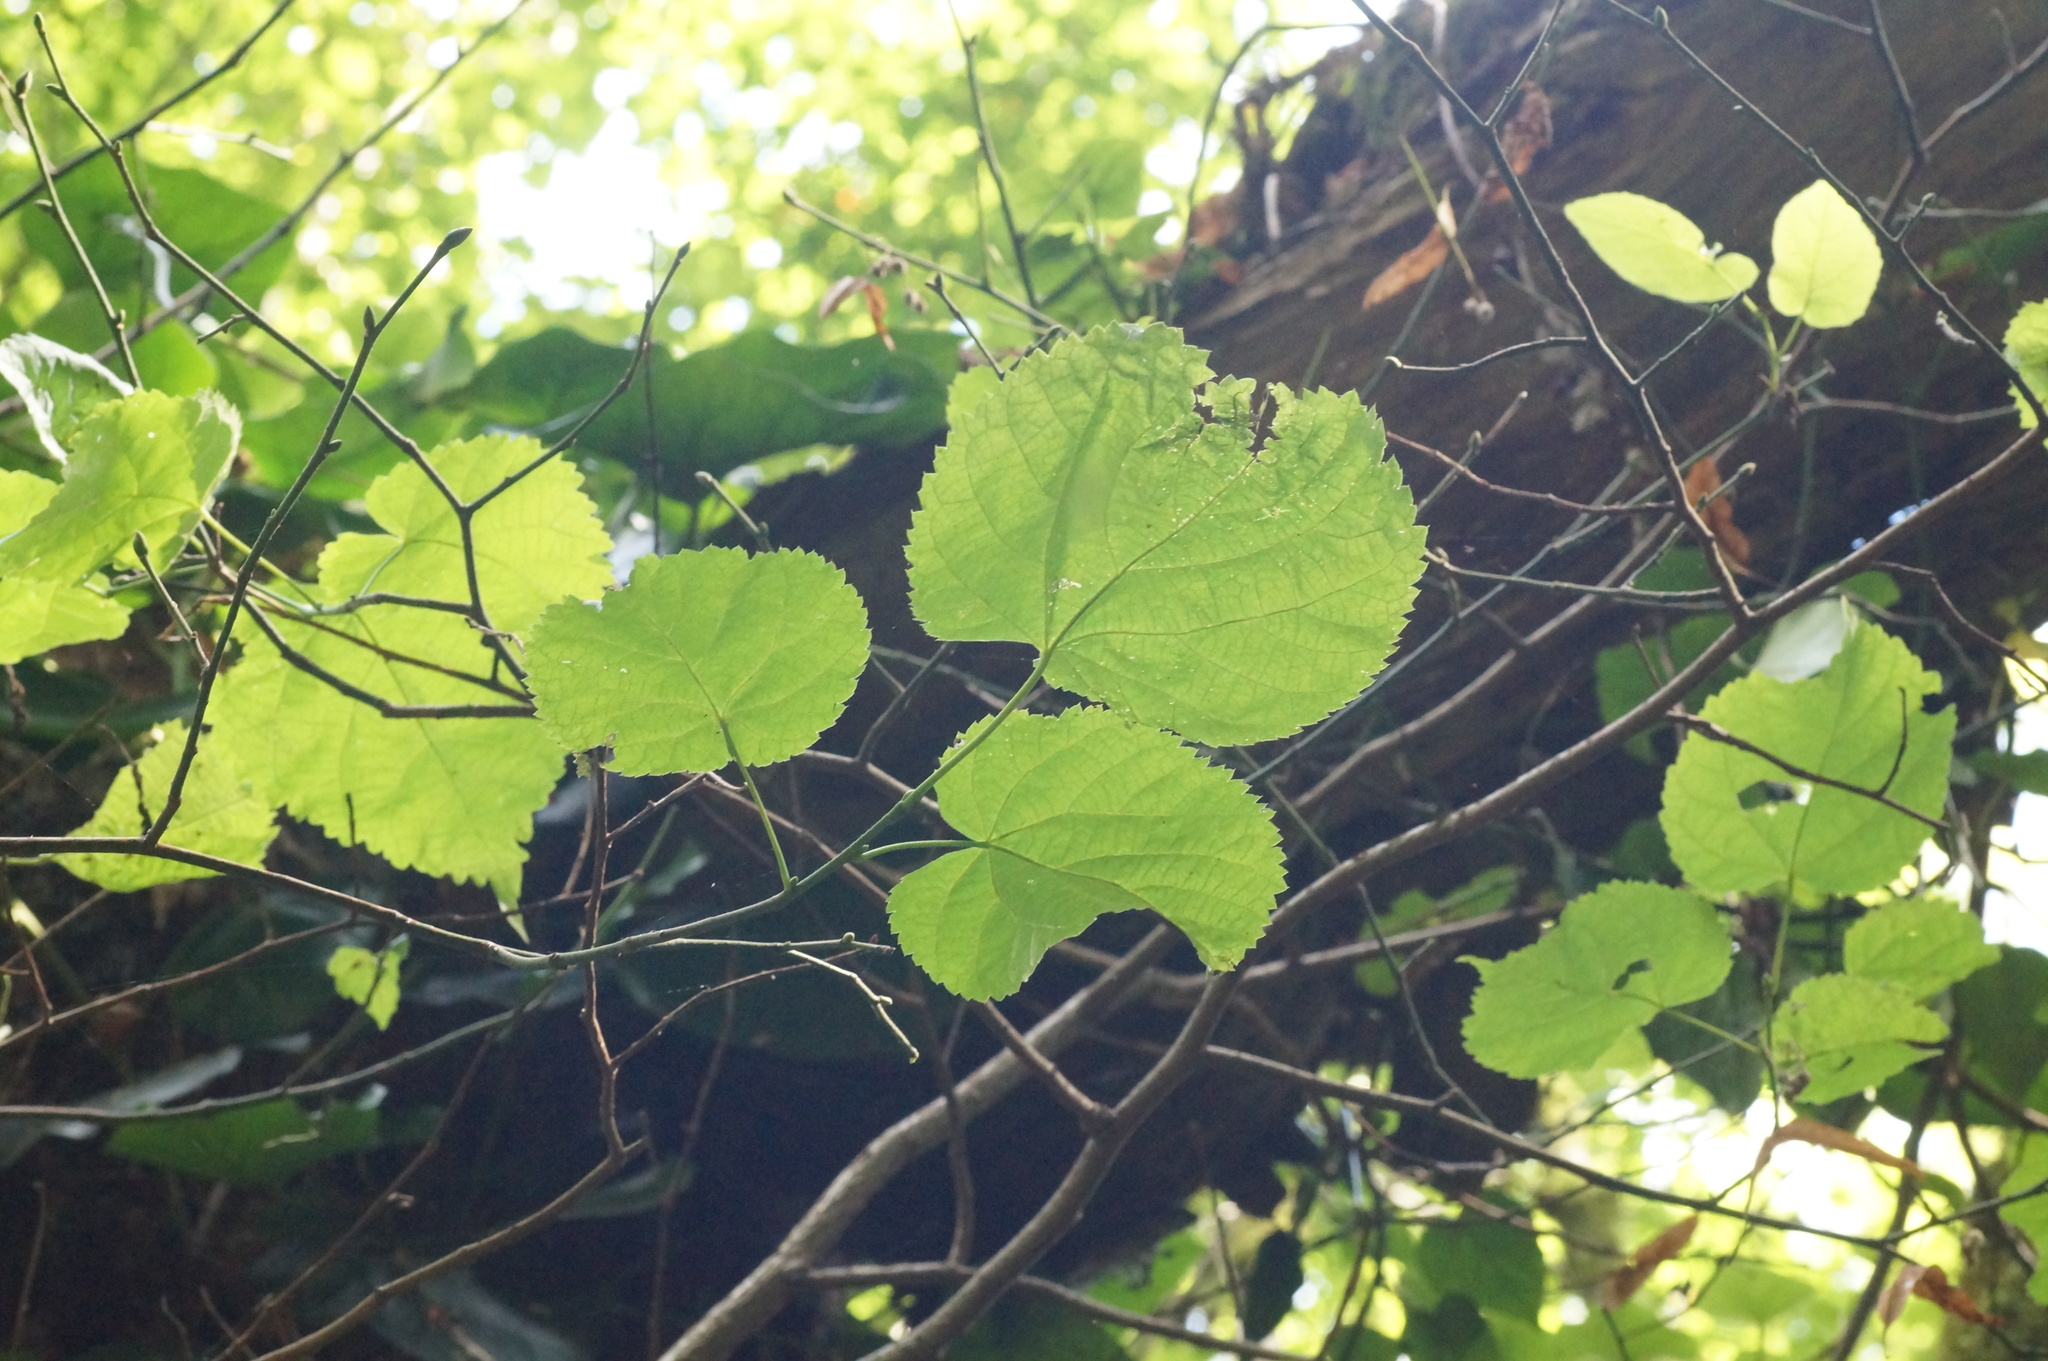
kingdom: Plantae
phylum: Tracheophyta
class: Magnoliopsida
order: Malvales
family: Malvaceae
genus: Tilia
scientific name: Tilia
